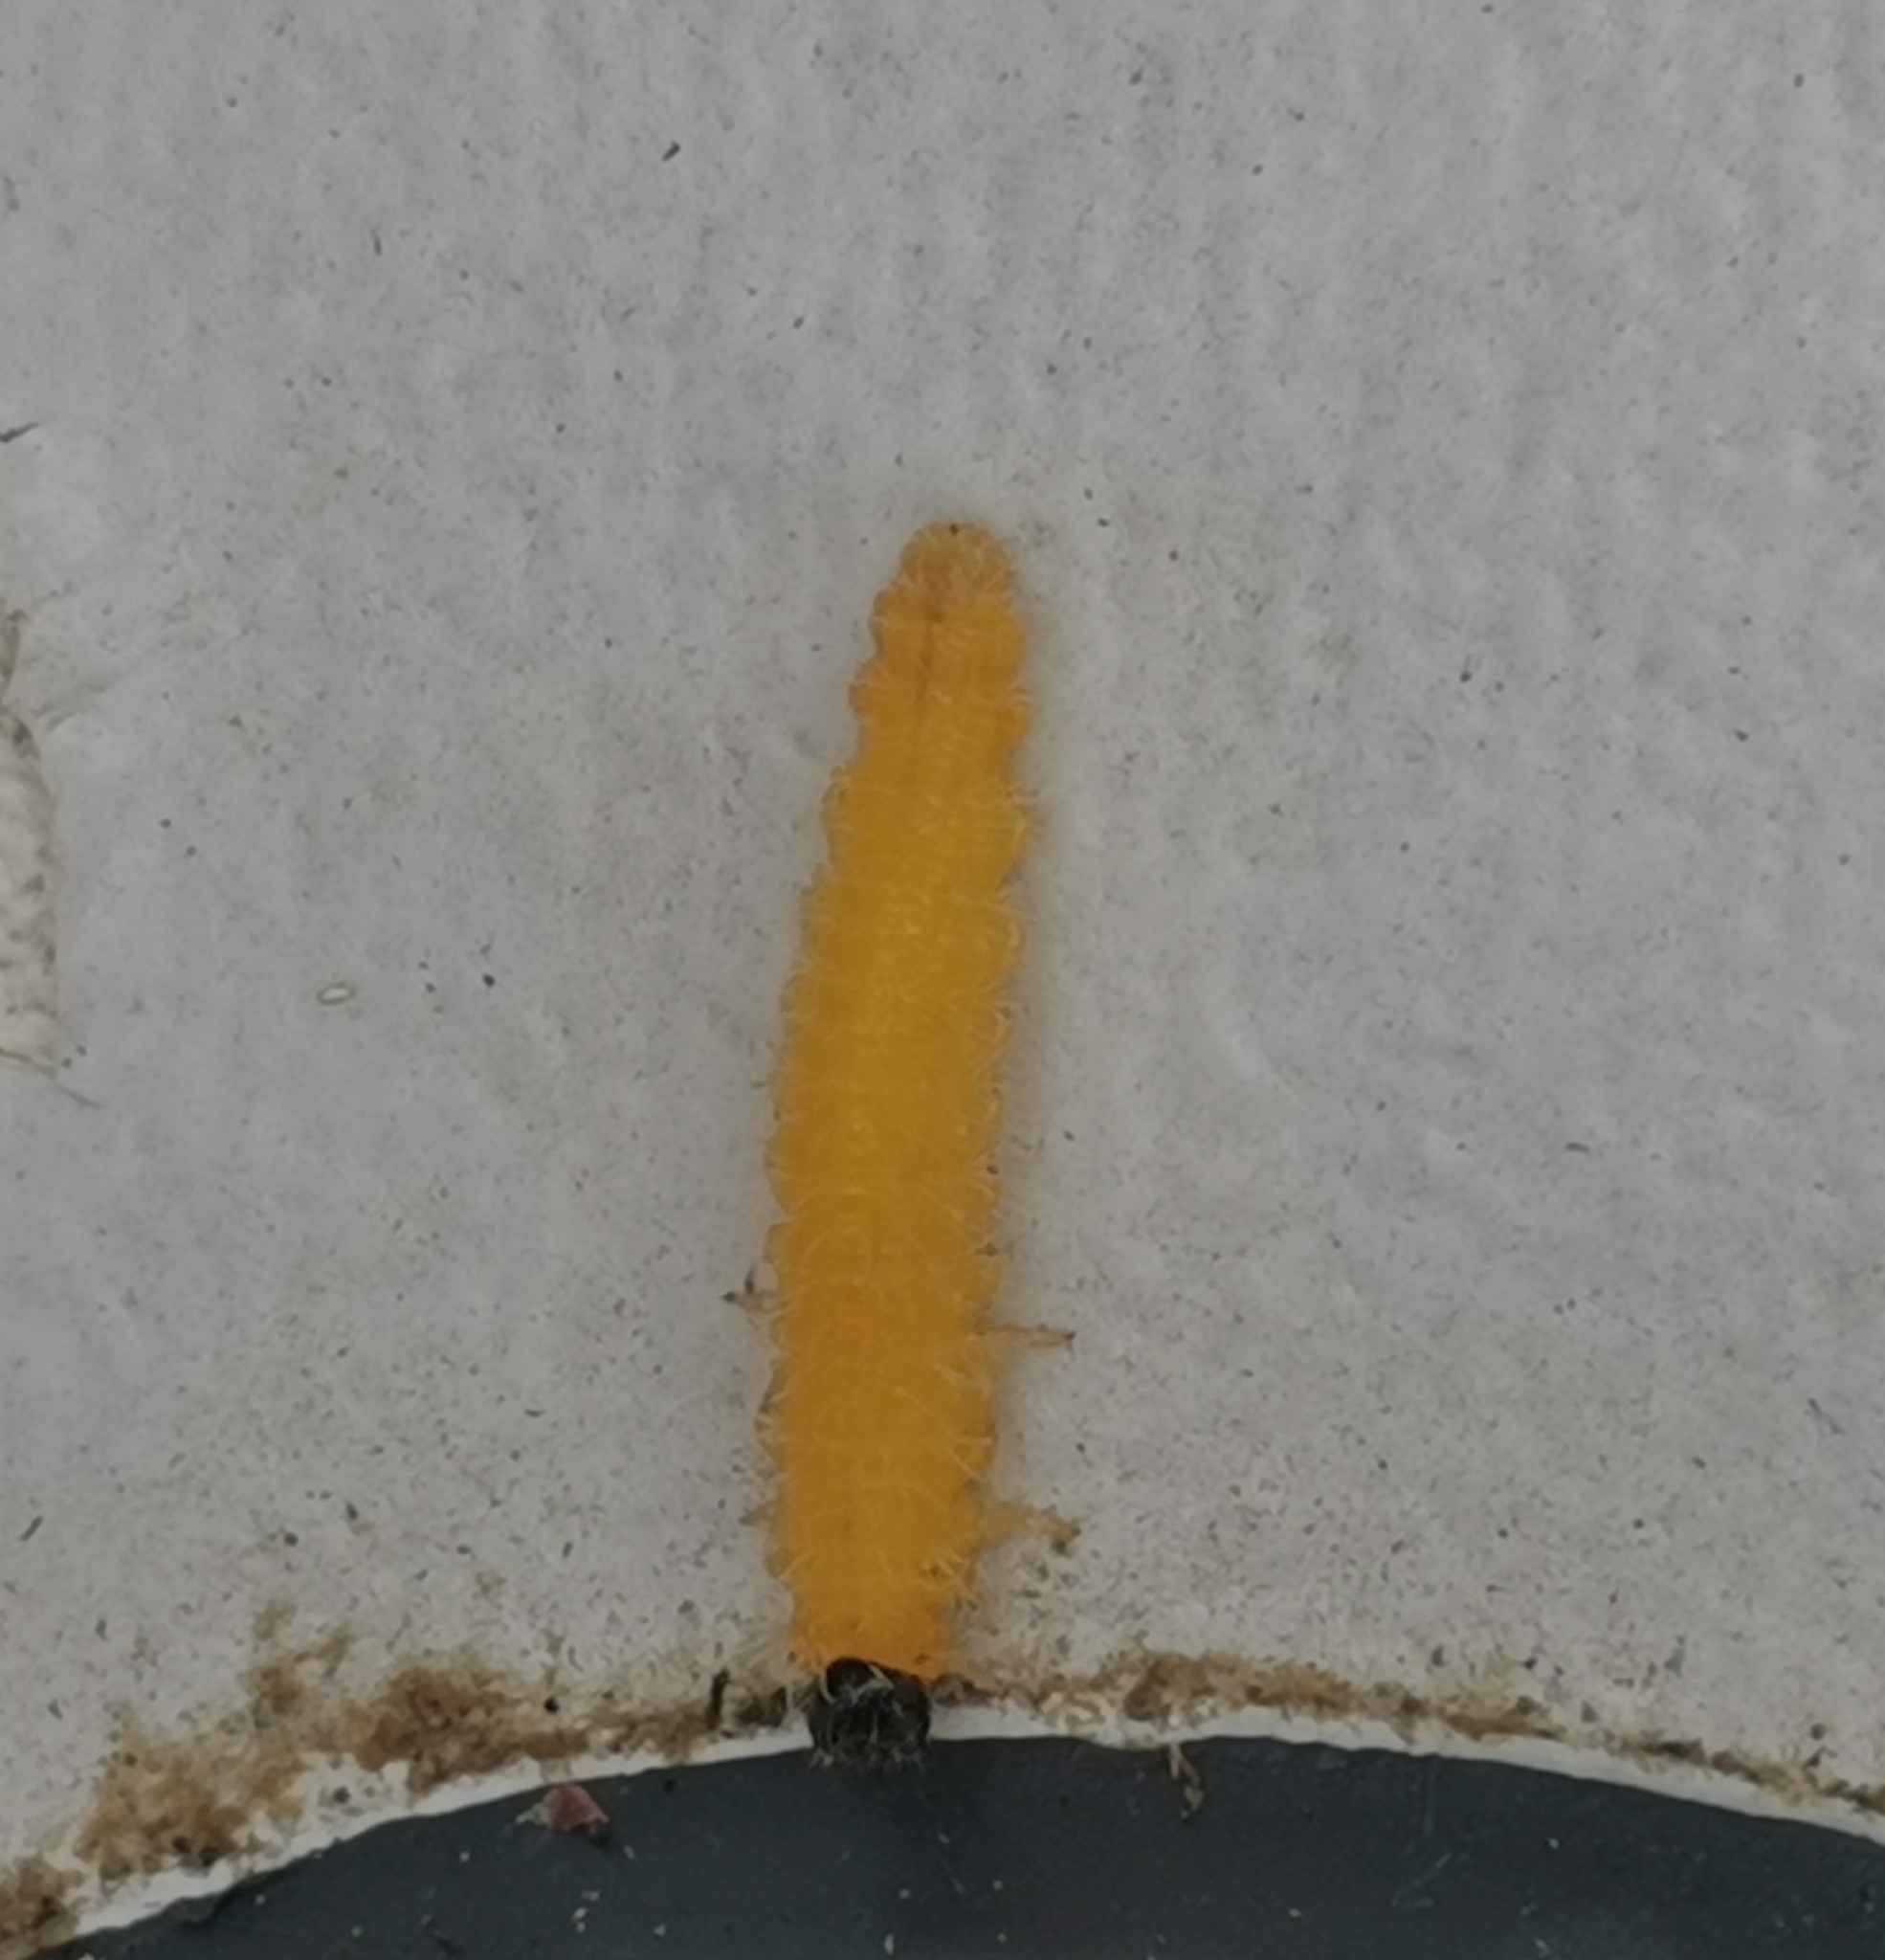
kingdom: Animalia
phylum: Arthropoda
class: Insecta
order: Hymenoptera
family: Tenthredinidae
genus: Cladius
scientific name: Cladius grandis
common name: Common sawfly
